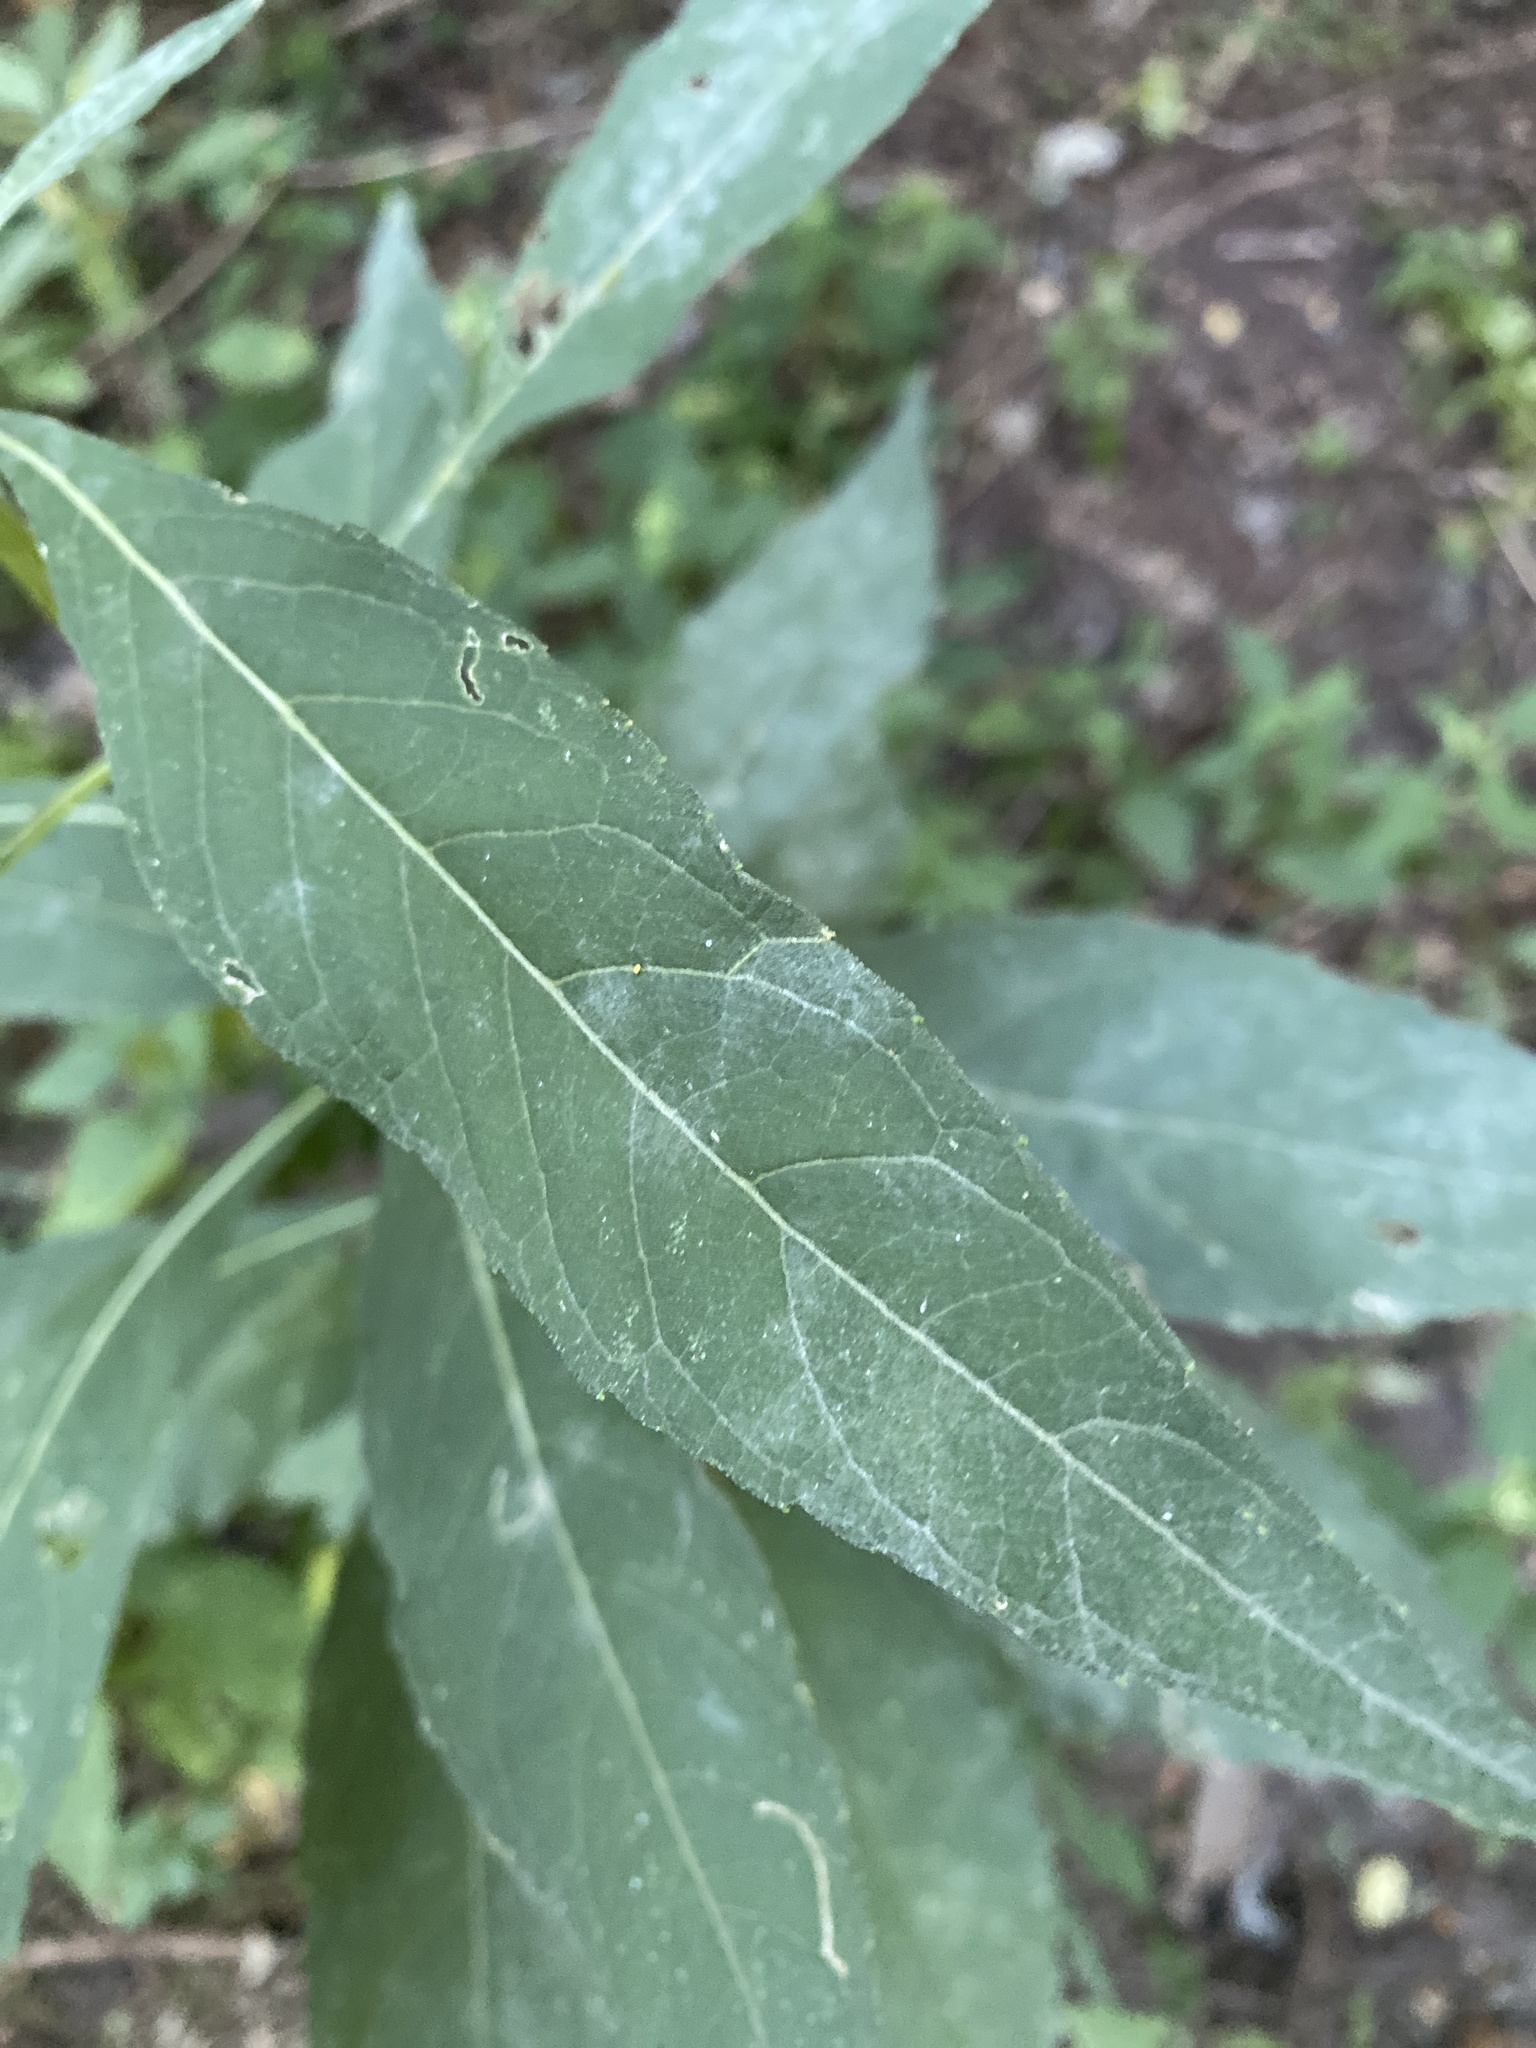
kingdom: Plantae
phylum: Tracheophyta
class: Magnoliopsida
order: Asterales
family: Asteraceae
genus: Verbesina
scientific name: Verbesina alternifolia
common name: Wingstem
